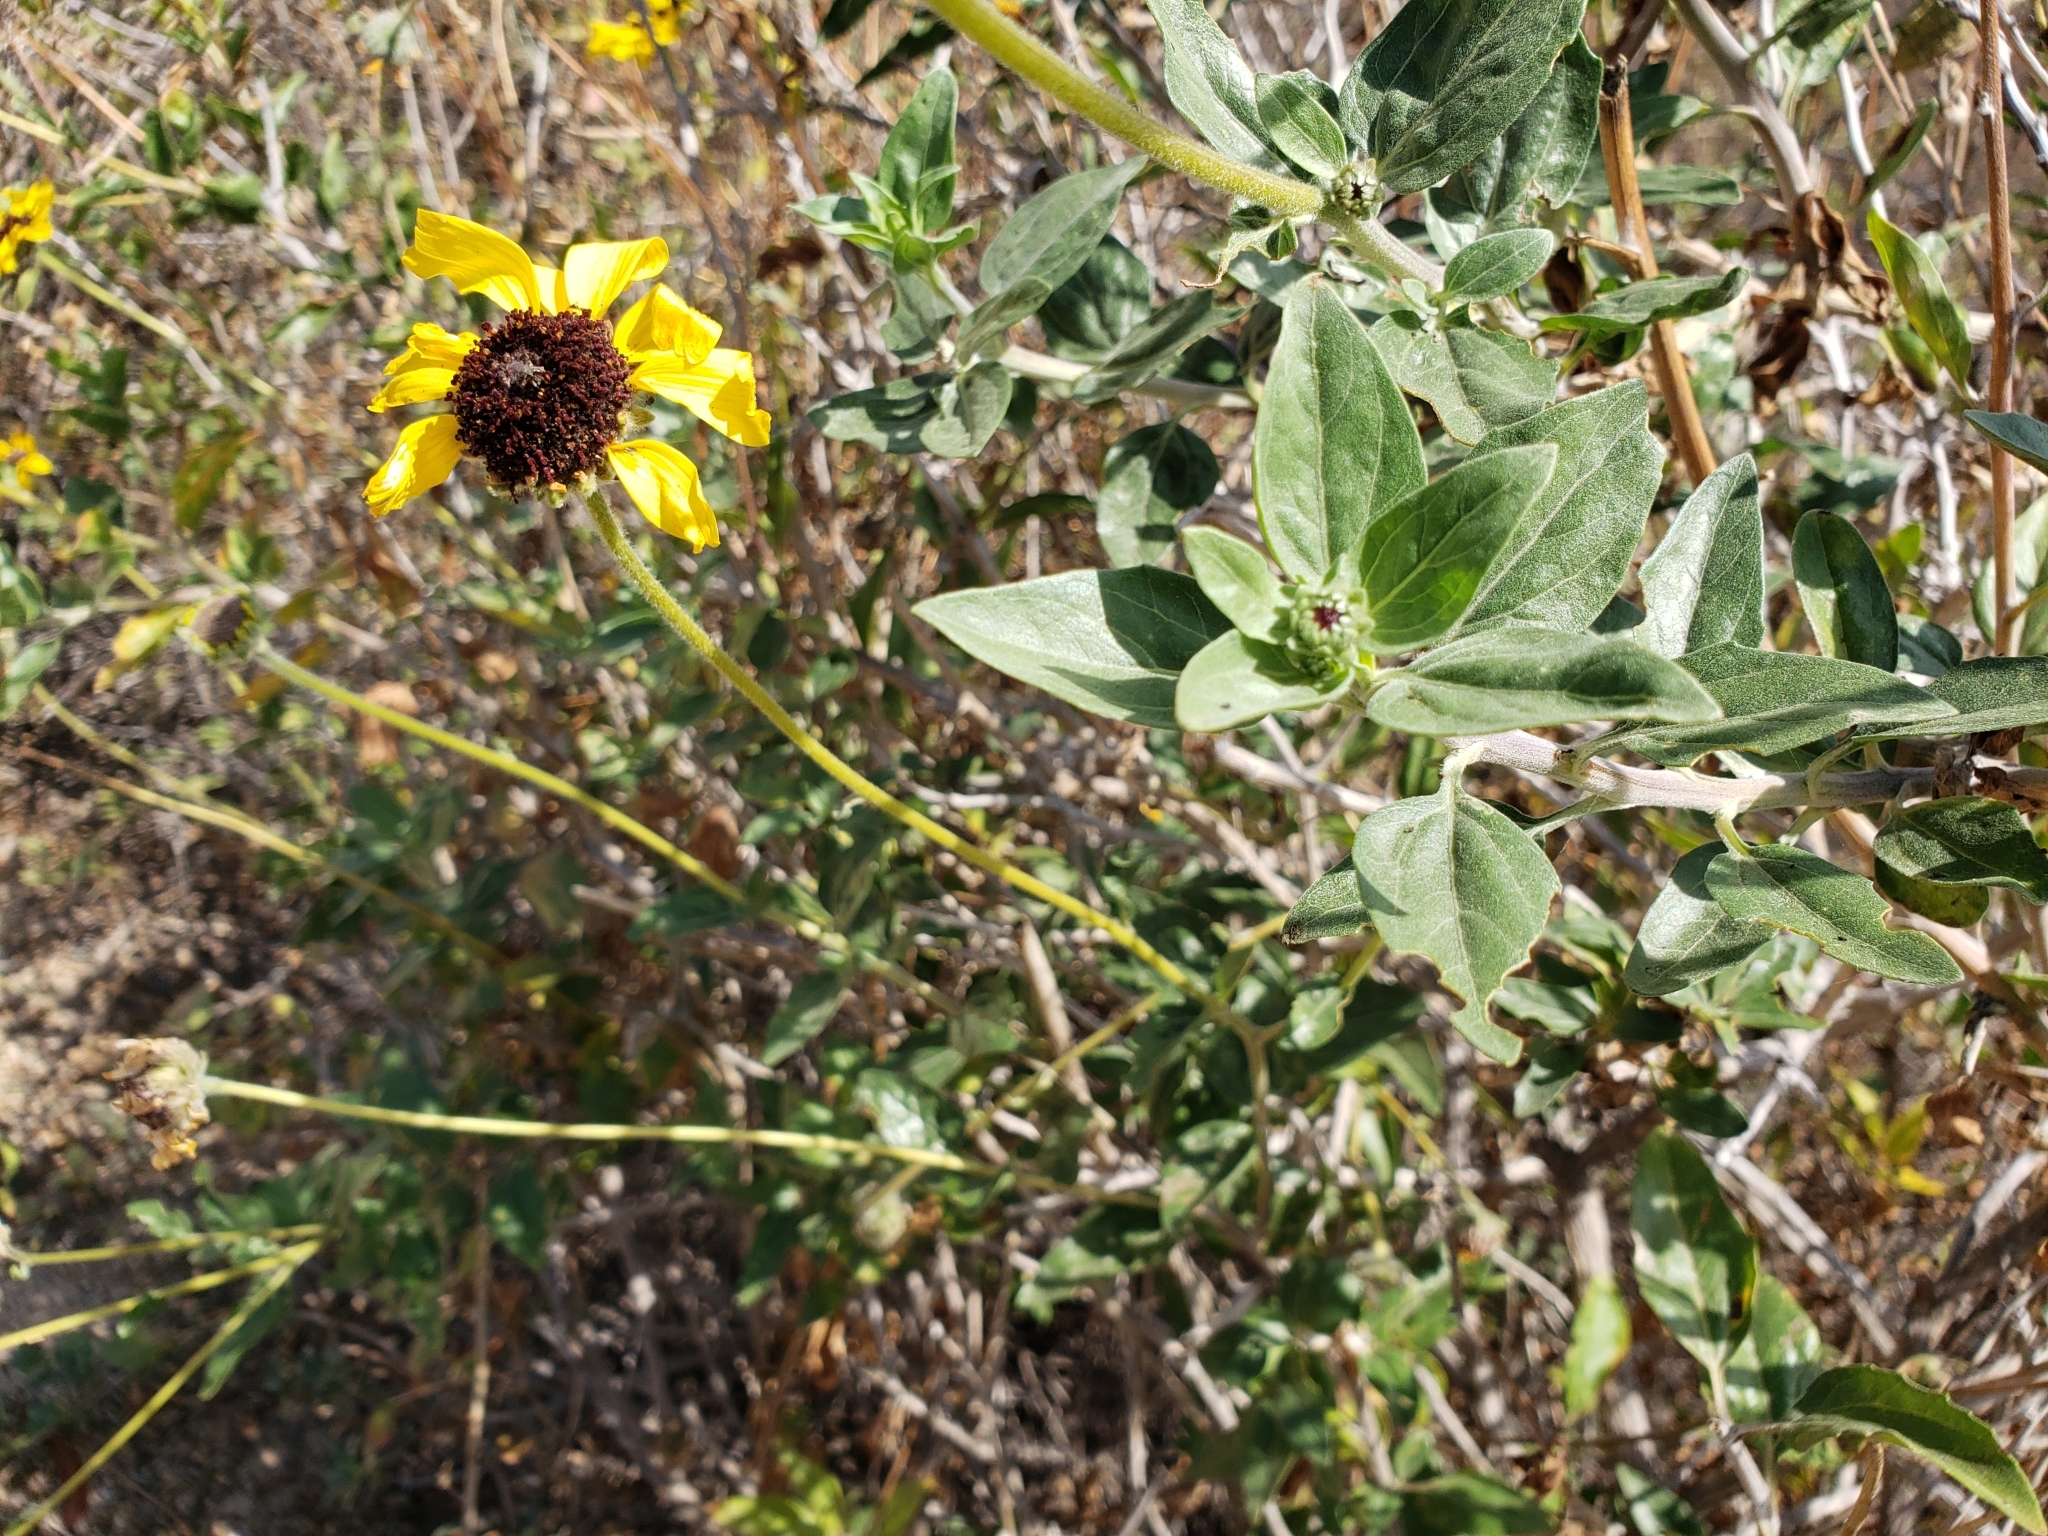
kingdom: Plantae
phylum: Tracheophyta
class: Magnoliopsida
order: Asterales
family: Asteraceae
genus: Encelia
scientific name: Encelia californica
